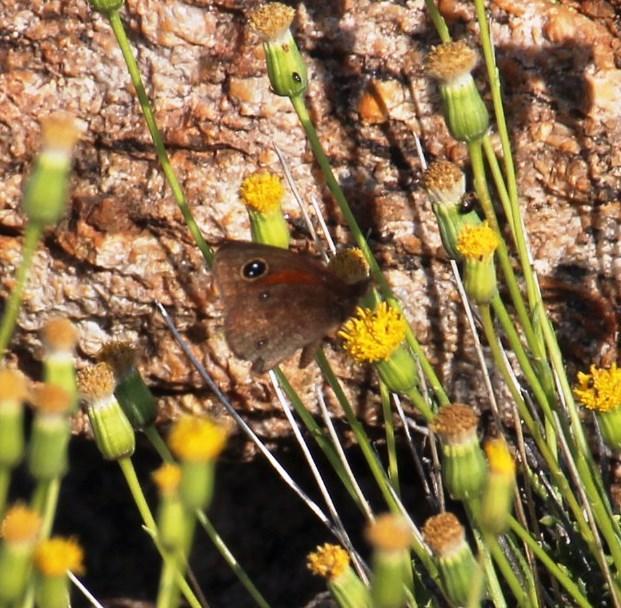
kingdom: Animalia
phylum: Arthropoda
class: Insecta
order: Lepidoptera
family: Nymphalidae
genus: Stygionympha
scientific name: Stygionympha vansoni
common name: Van son's hillside brown
